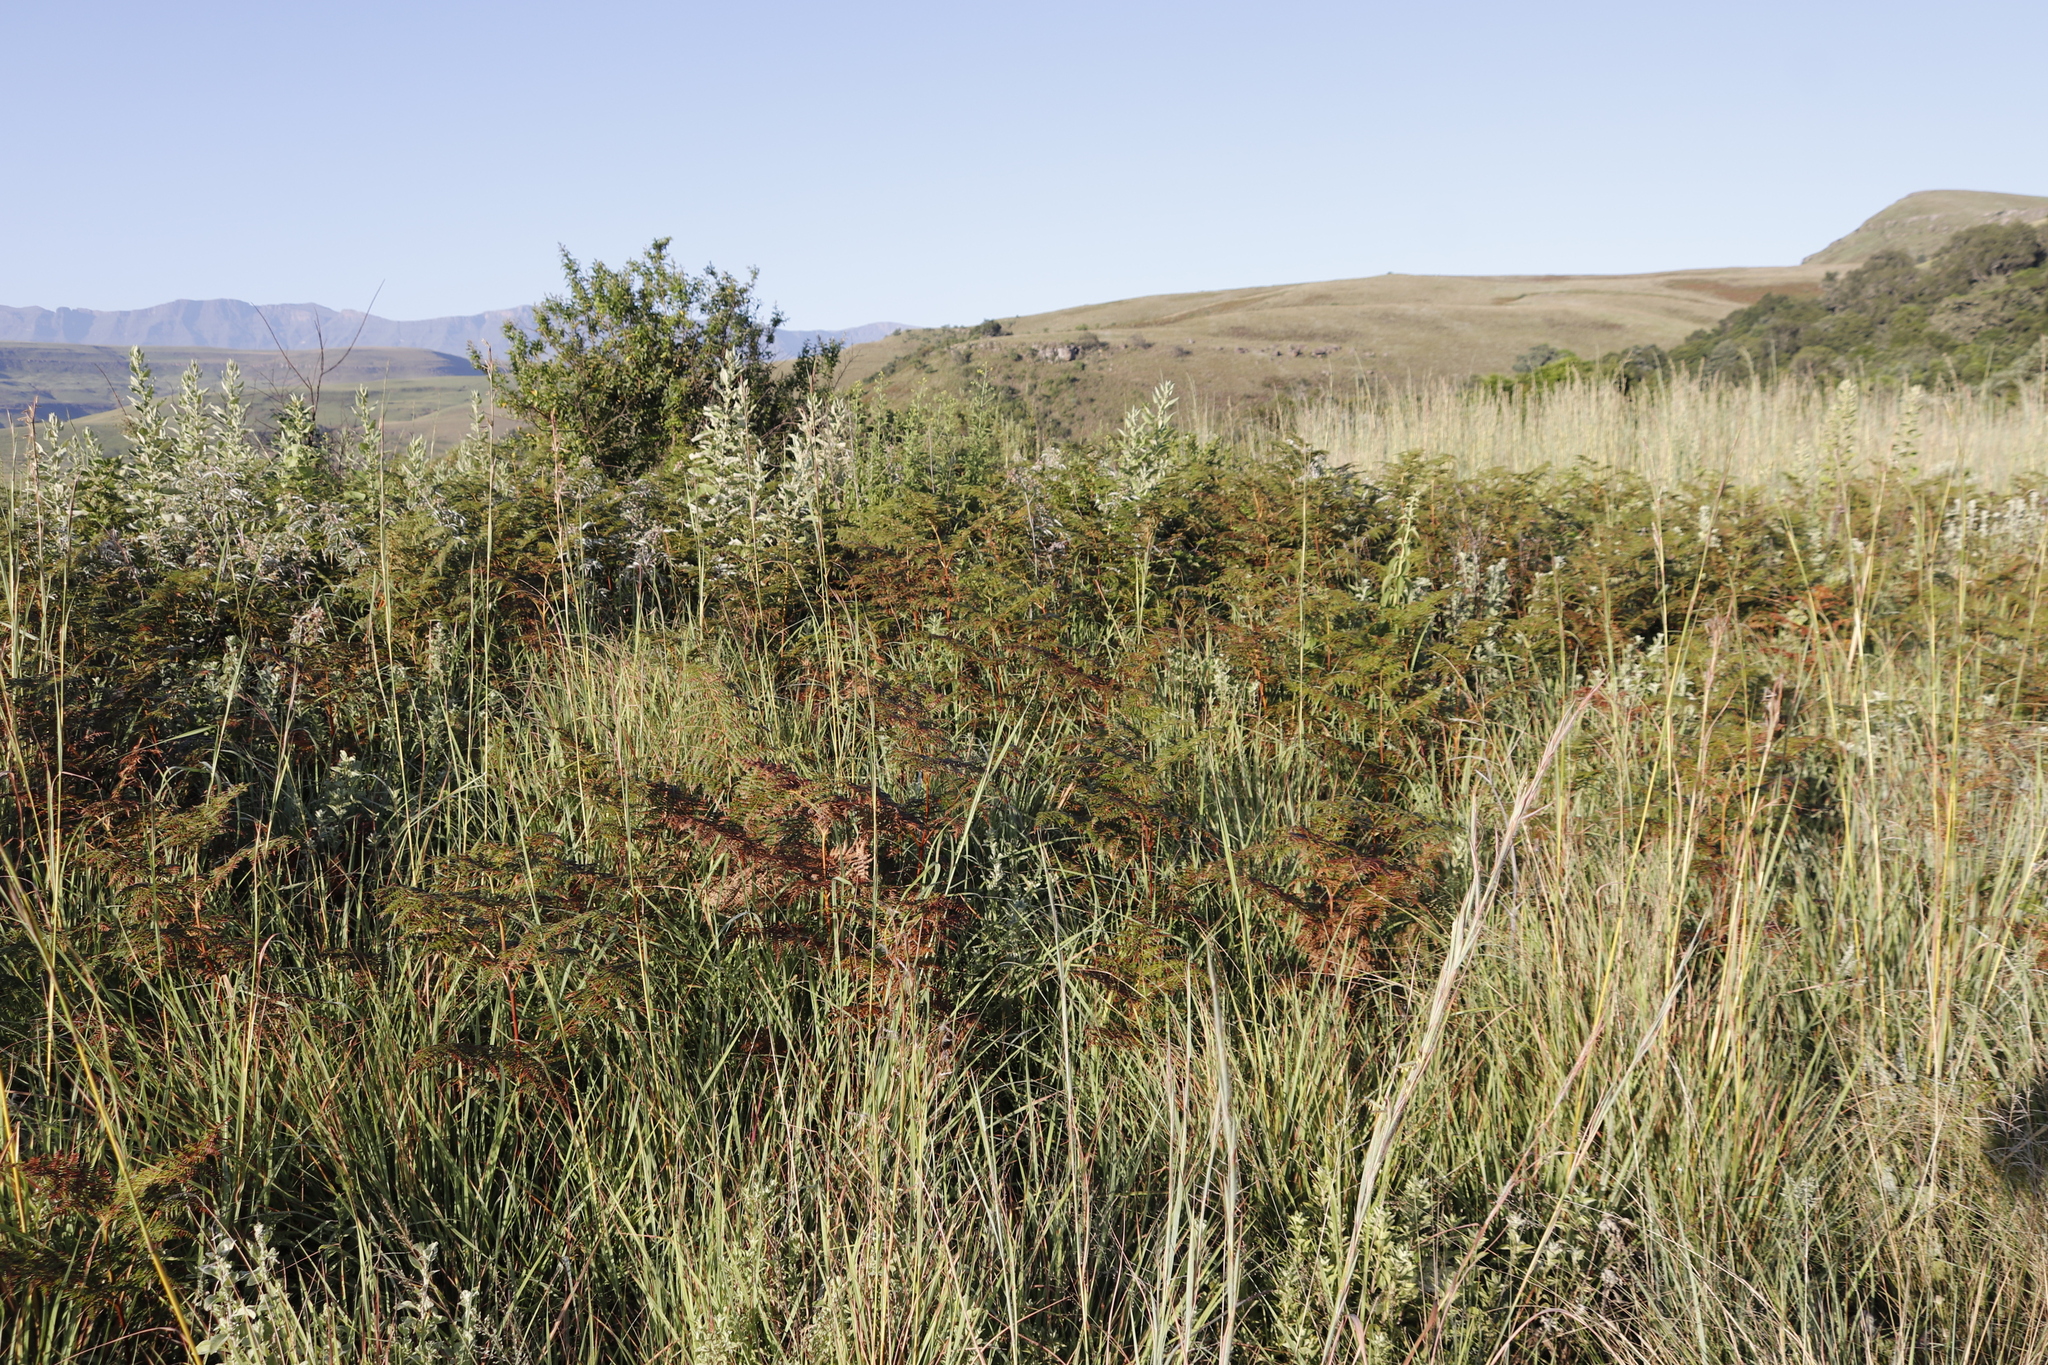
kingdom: Plantae
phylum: Tracheophyta
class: Polypodiopsida
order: Polypodiales
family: Dennstaedtiaceae
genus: Pteridium
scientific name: Pteridium aquilinum
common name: Bracken
